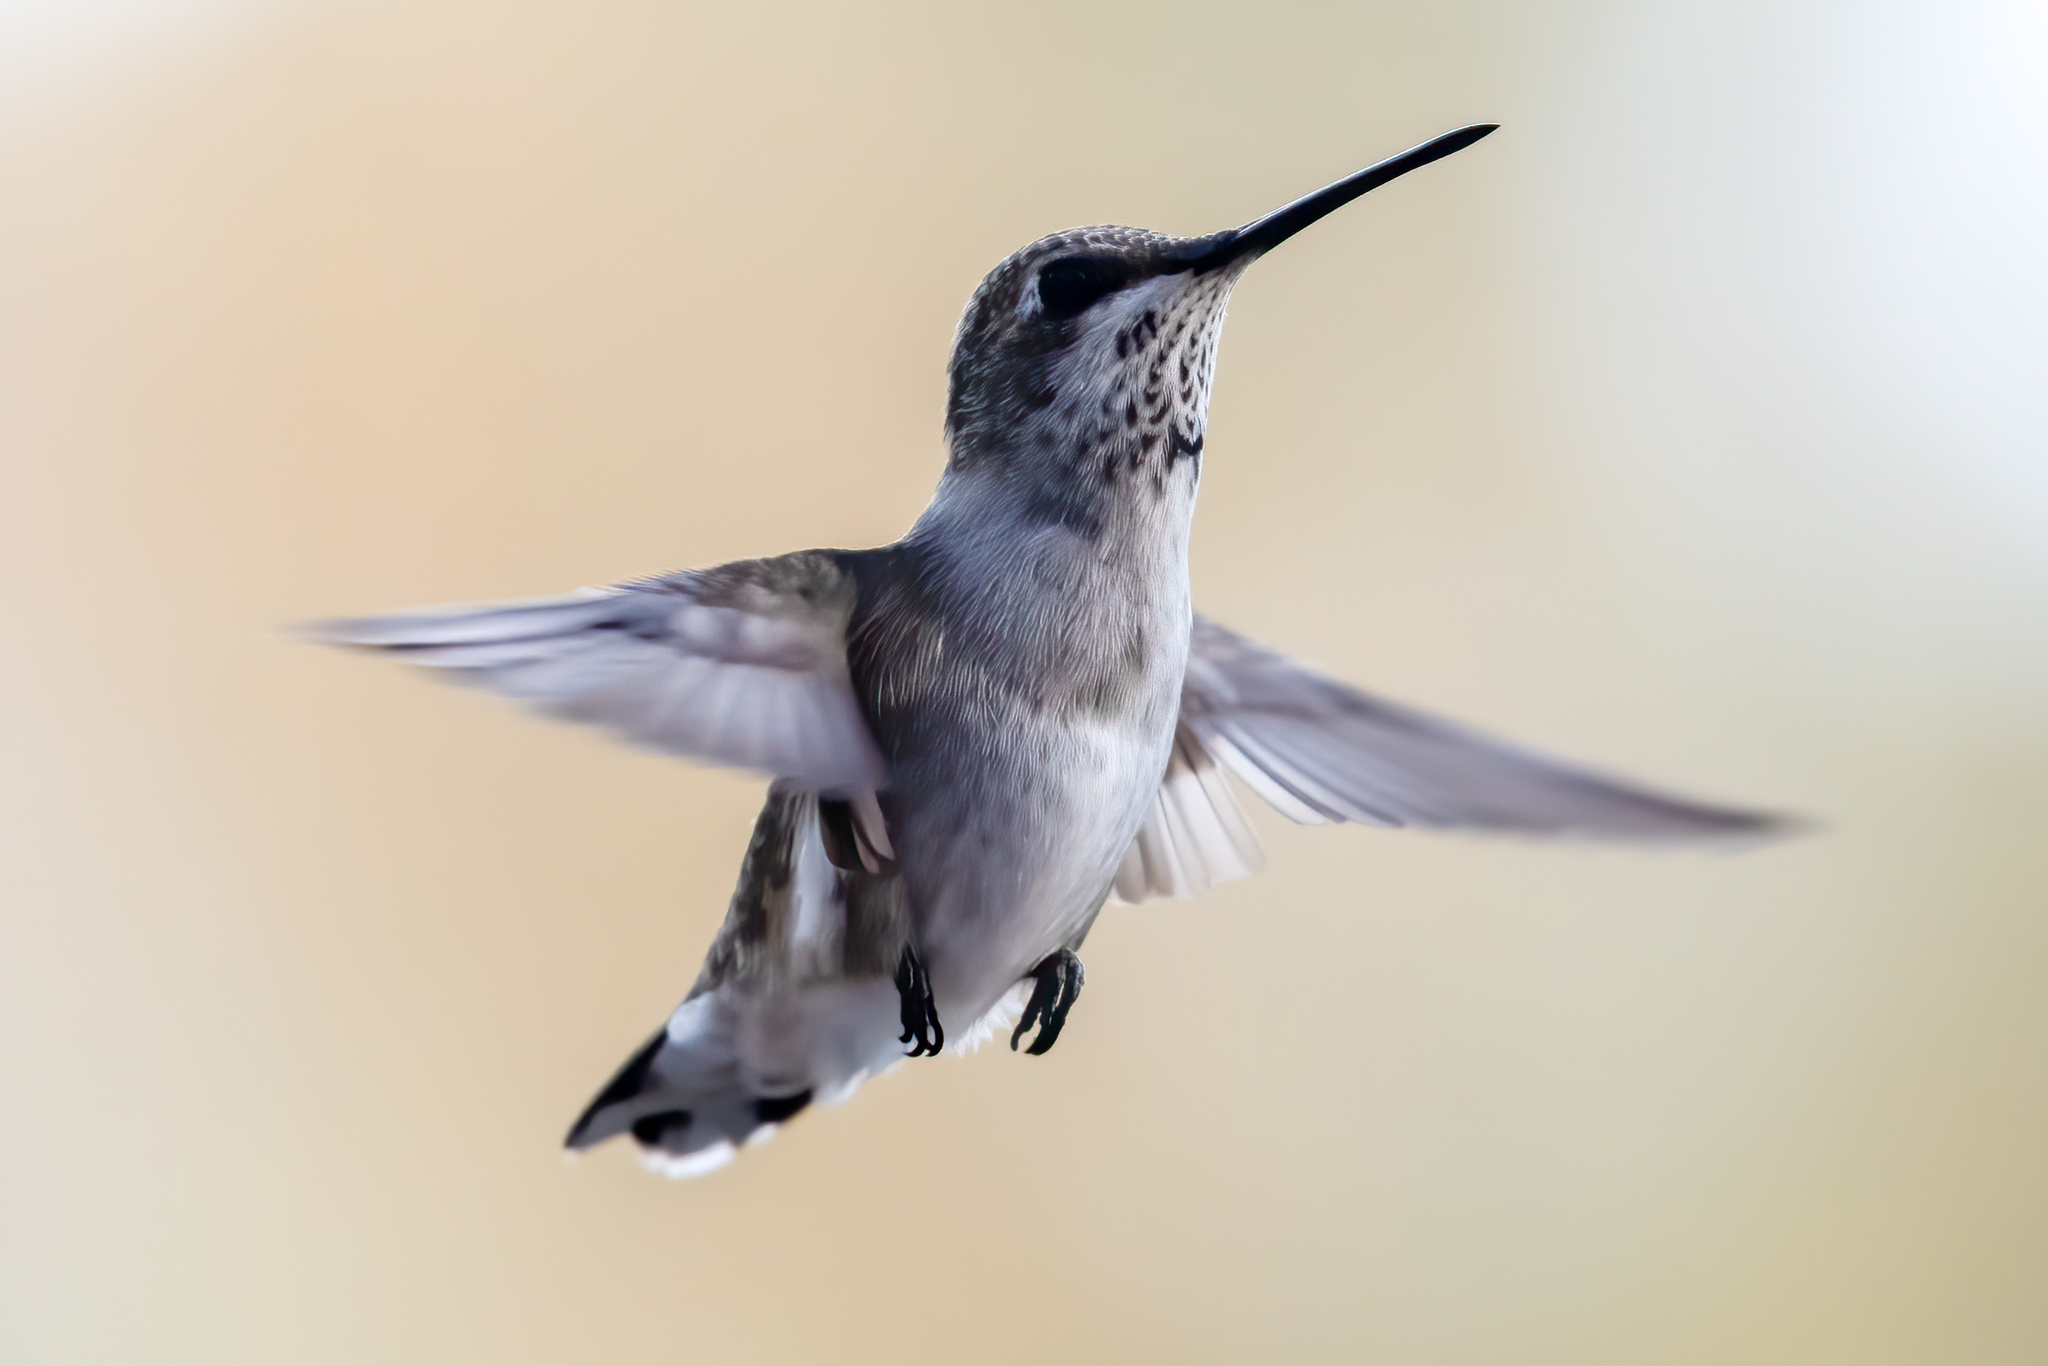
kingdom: Animalia
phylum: Chordata
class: Aves
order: Apodiformes
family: Trochilidae
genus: Archilochus
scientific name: Archilochus alexandri
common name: Black-chinned hummingbird
